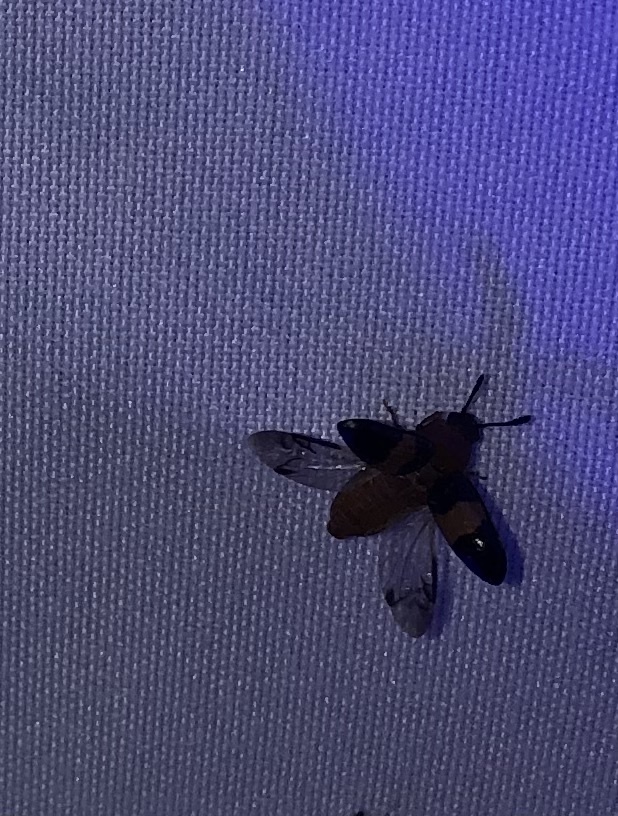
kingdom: Animalia
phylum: Arthropoda
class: Insecta
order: Coleoptera
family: Erotylidae
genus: Triplax
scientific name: Triplax festiva
